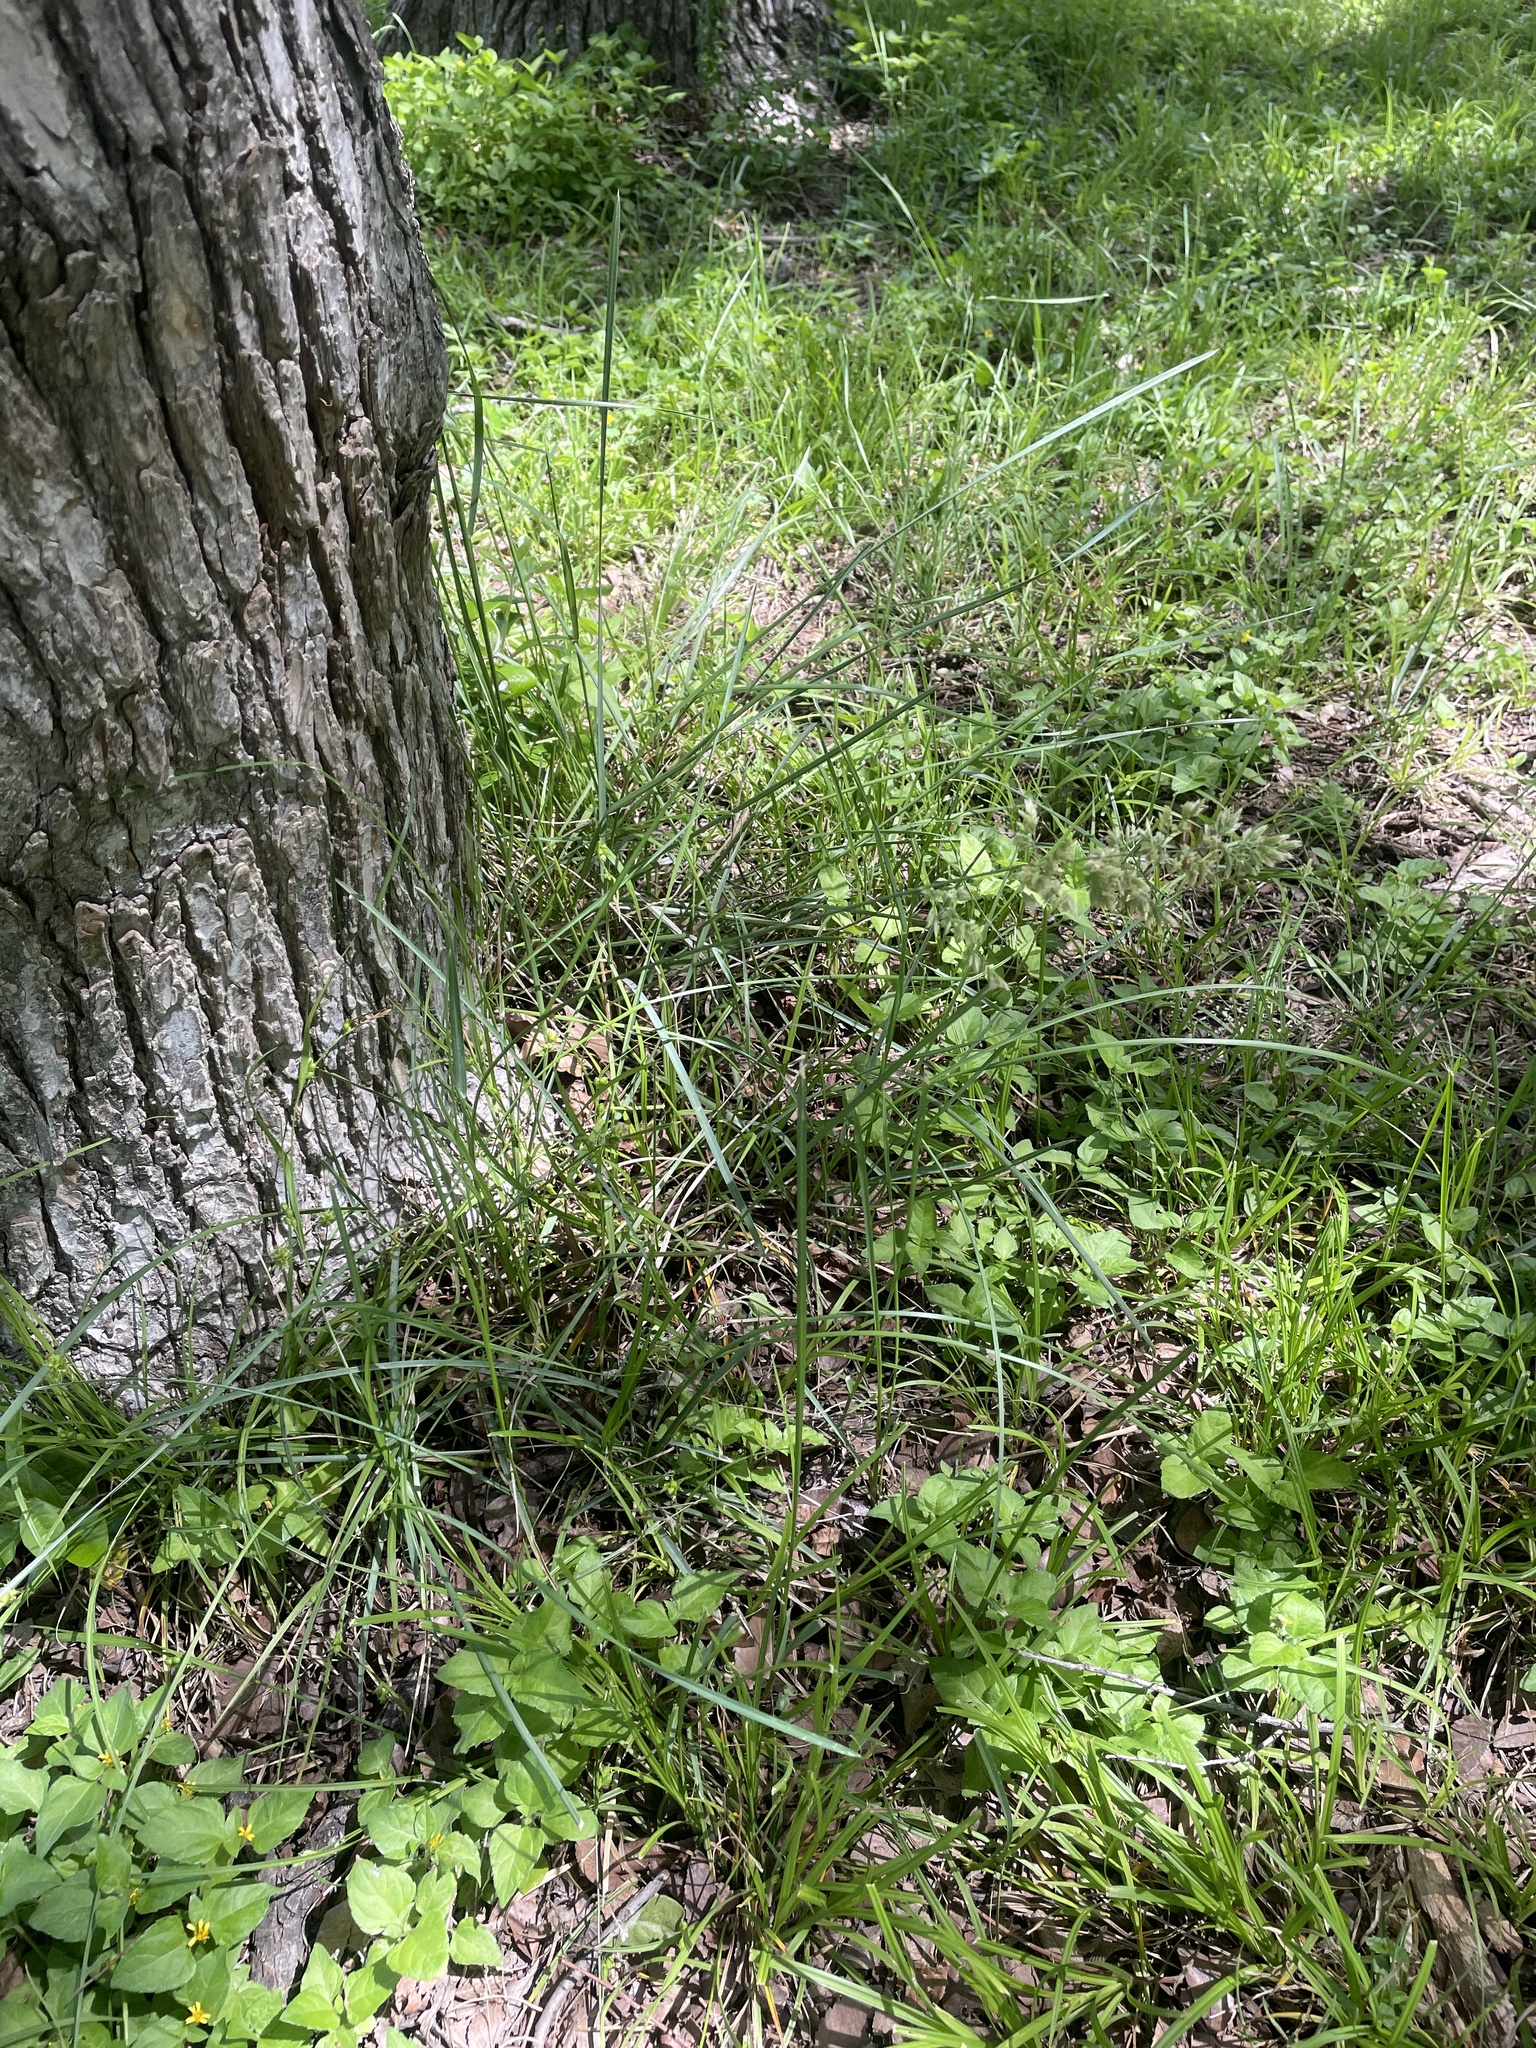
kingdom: Plantae
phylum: Tracheophyta
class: Liliopsida
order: Poales
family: Poaceae
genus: Poa
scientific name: Poa arachnifera
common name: Texas bluegrass
